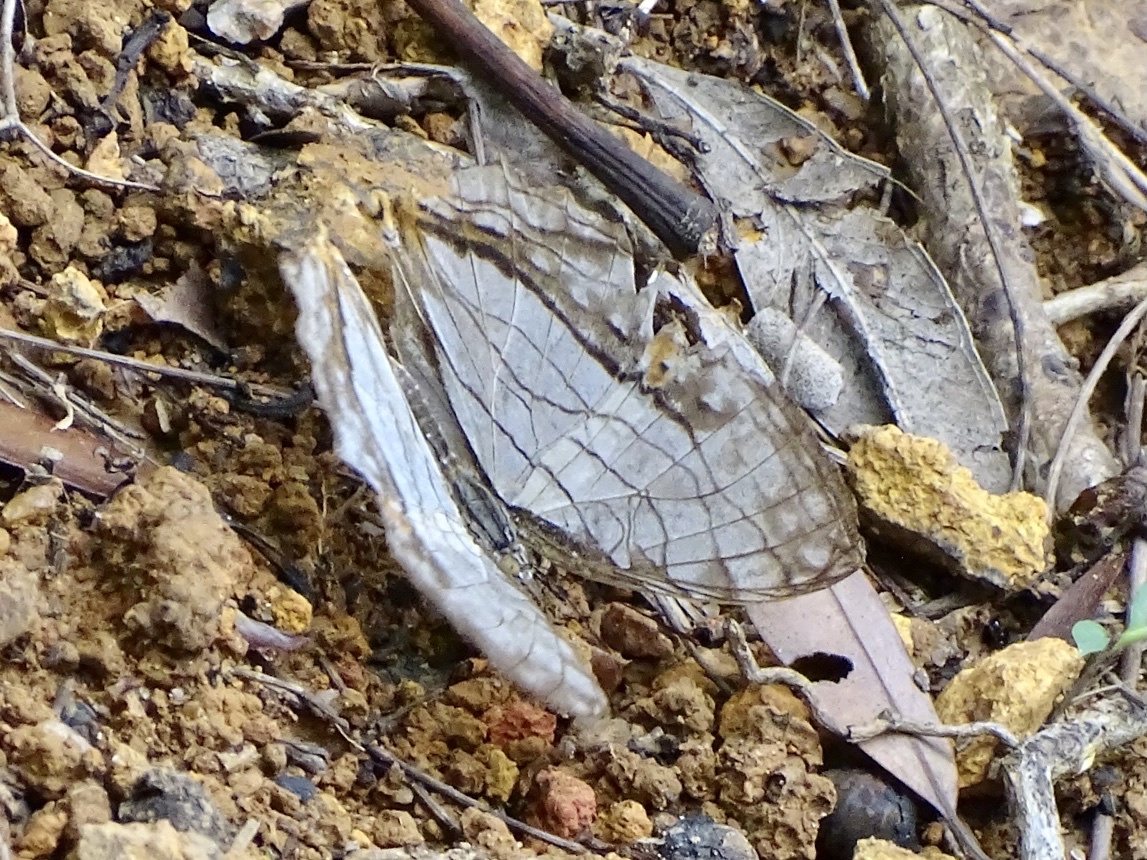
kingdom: Animalia
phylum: Arthropoda
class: Insecta
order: Lepidoptera
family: Nymphalidae
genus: Cyrestis
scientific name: Cyrestis thyodamas
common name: Common mapwing
